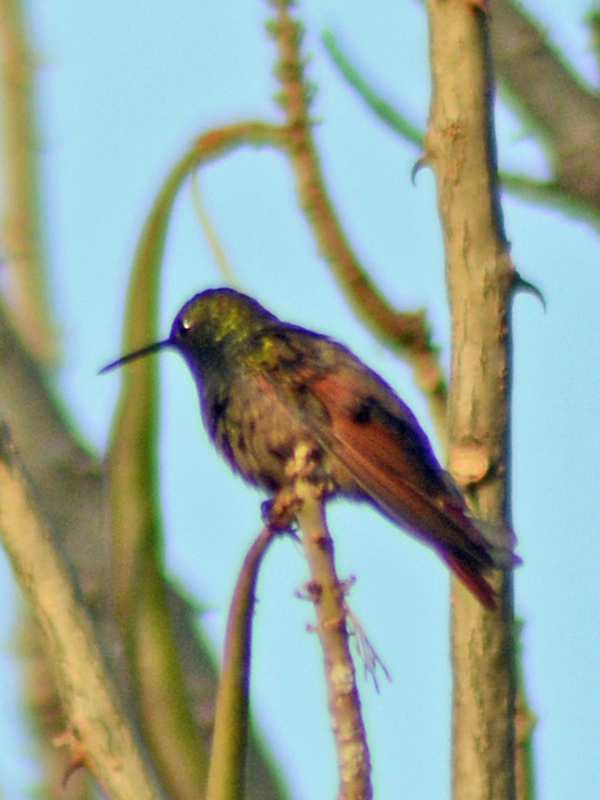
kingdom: Animalia
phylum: Chordata
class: Aves
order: Apodiformes
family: Trochilidae
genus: Saucerottia
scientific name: Saucerottia beryllina
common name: Berylline hummingbird
